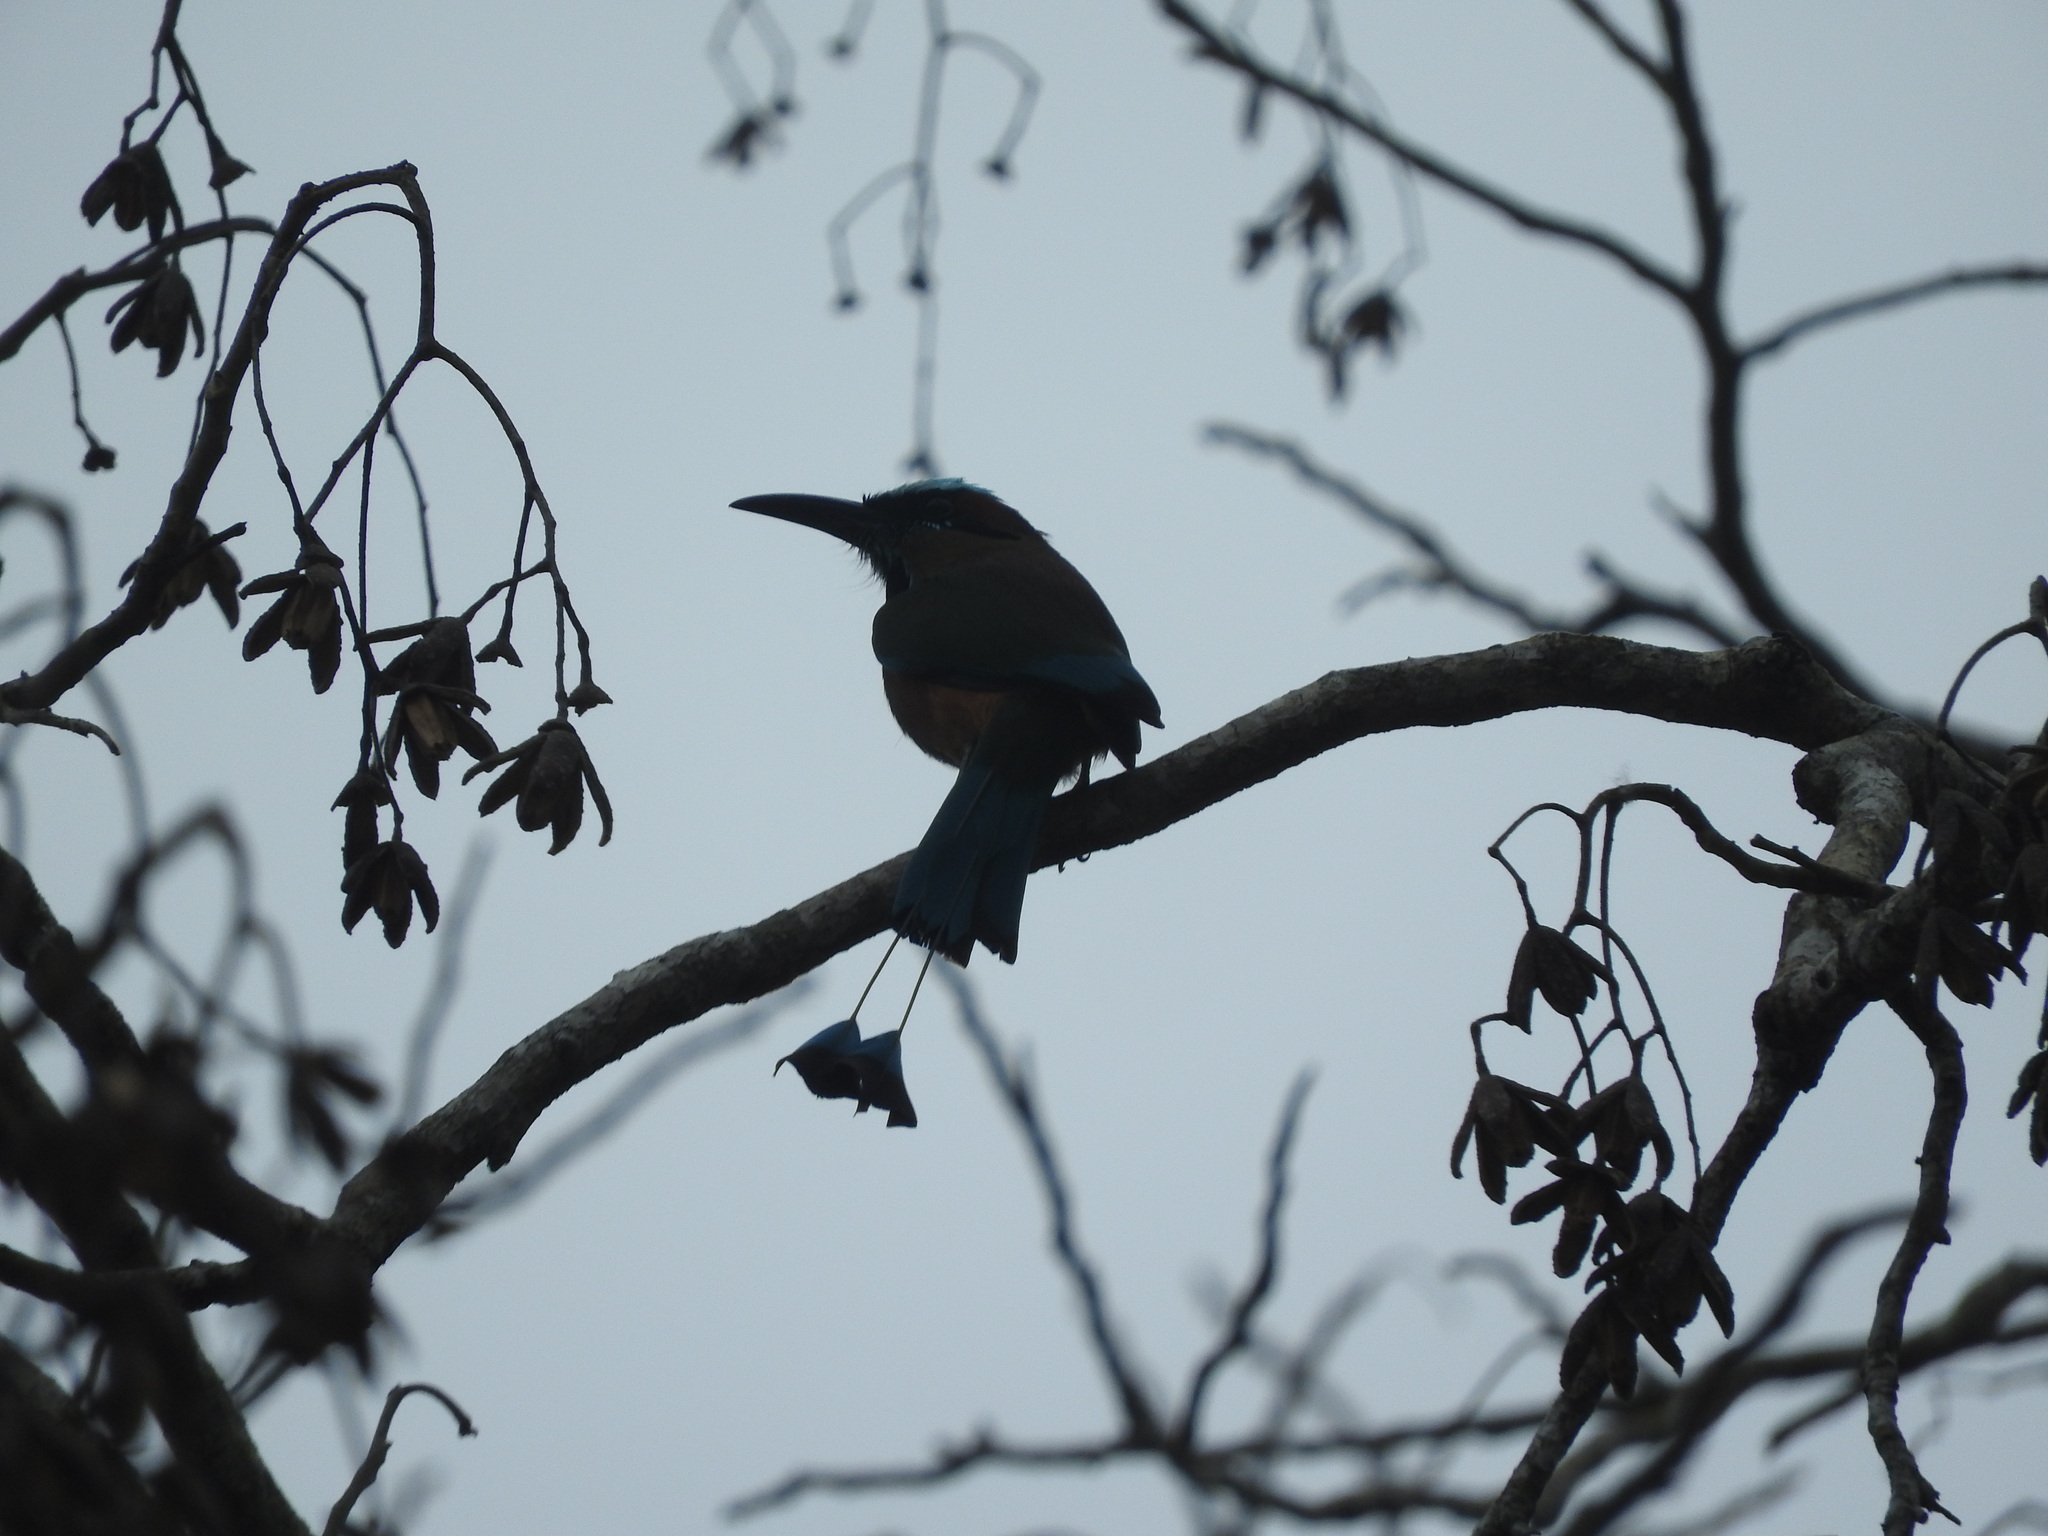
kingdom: Animalia
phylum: Chordata
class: Aves
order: Coraciiformes
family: Momotidae
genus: Eumomota
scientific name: Eumomota superciliosa
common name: Turquoise-browed motmot
